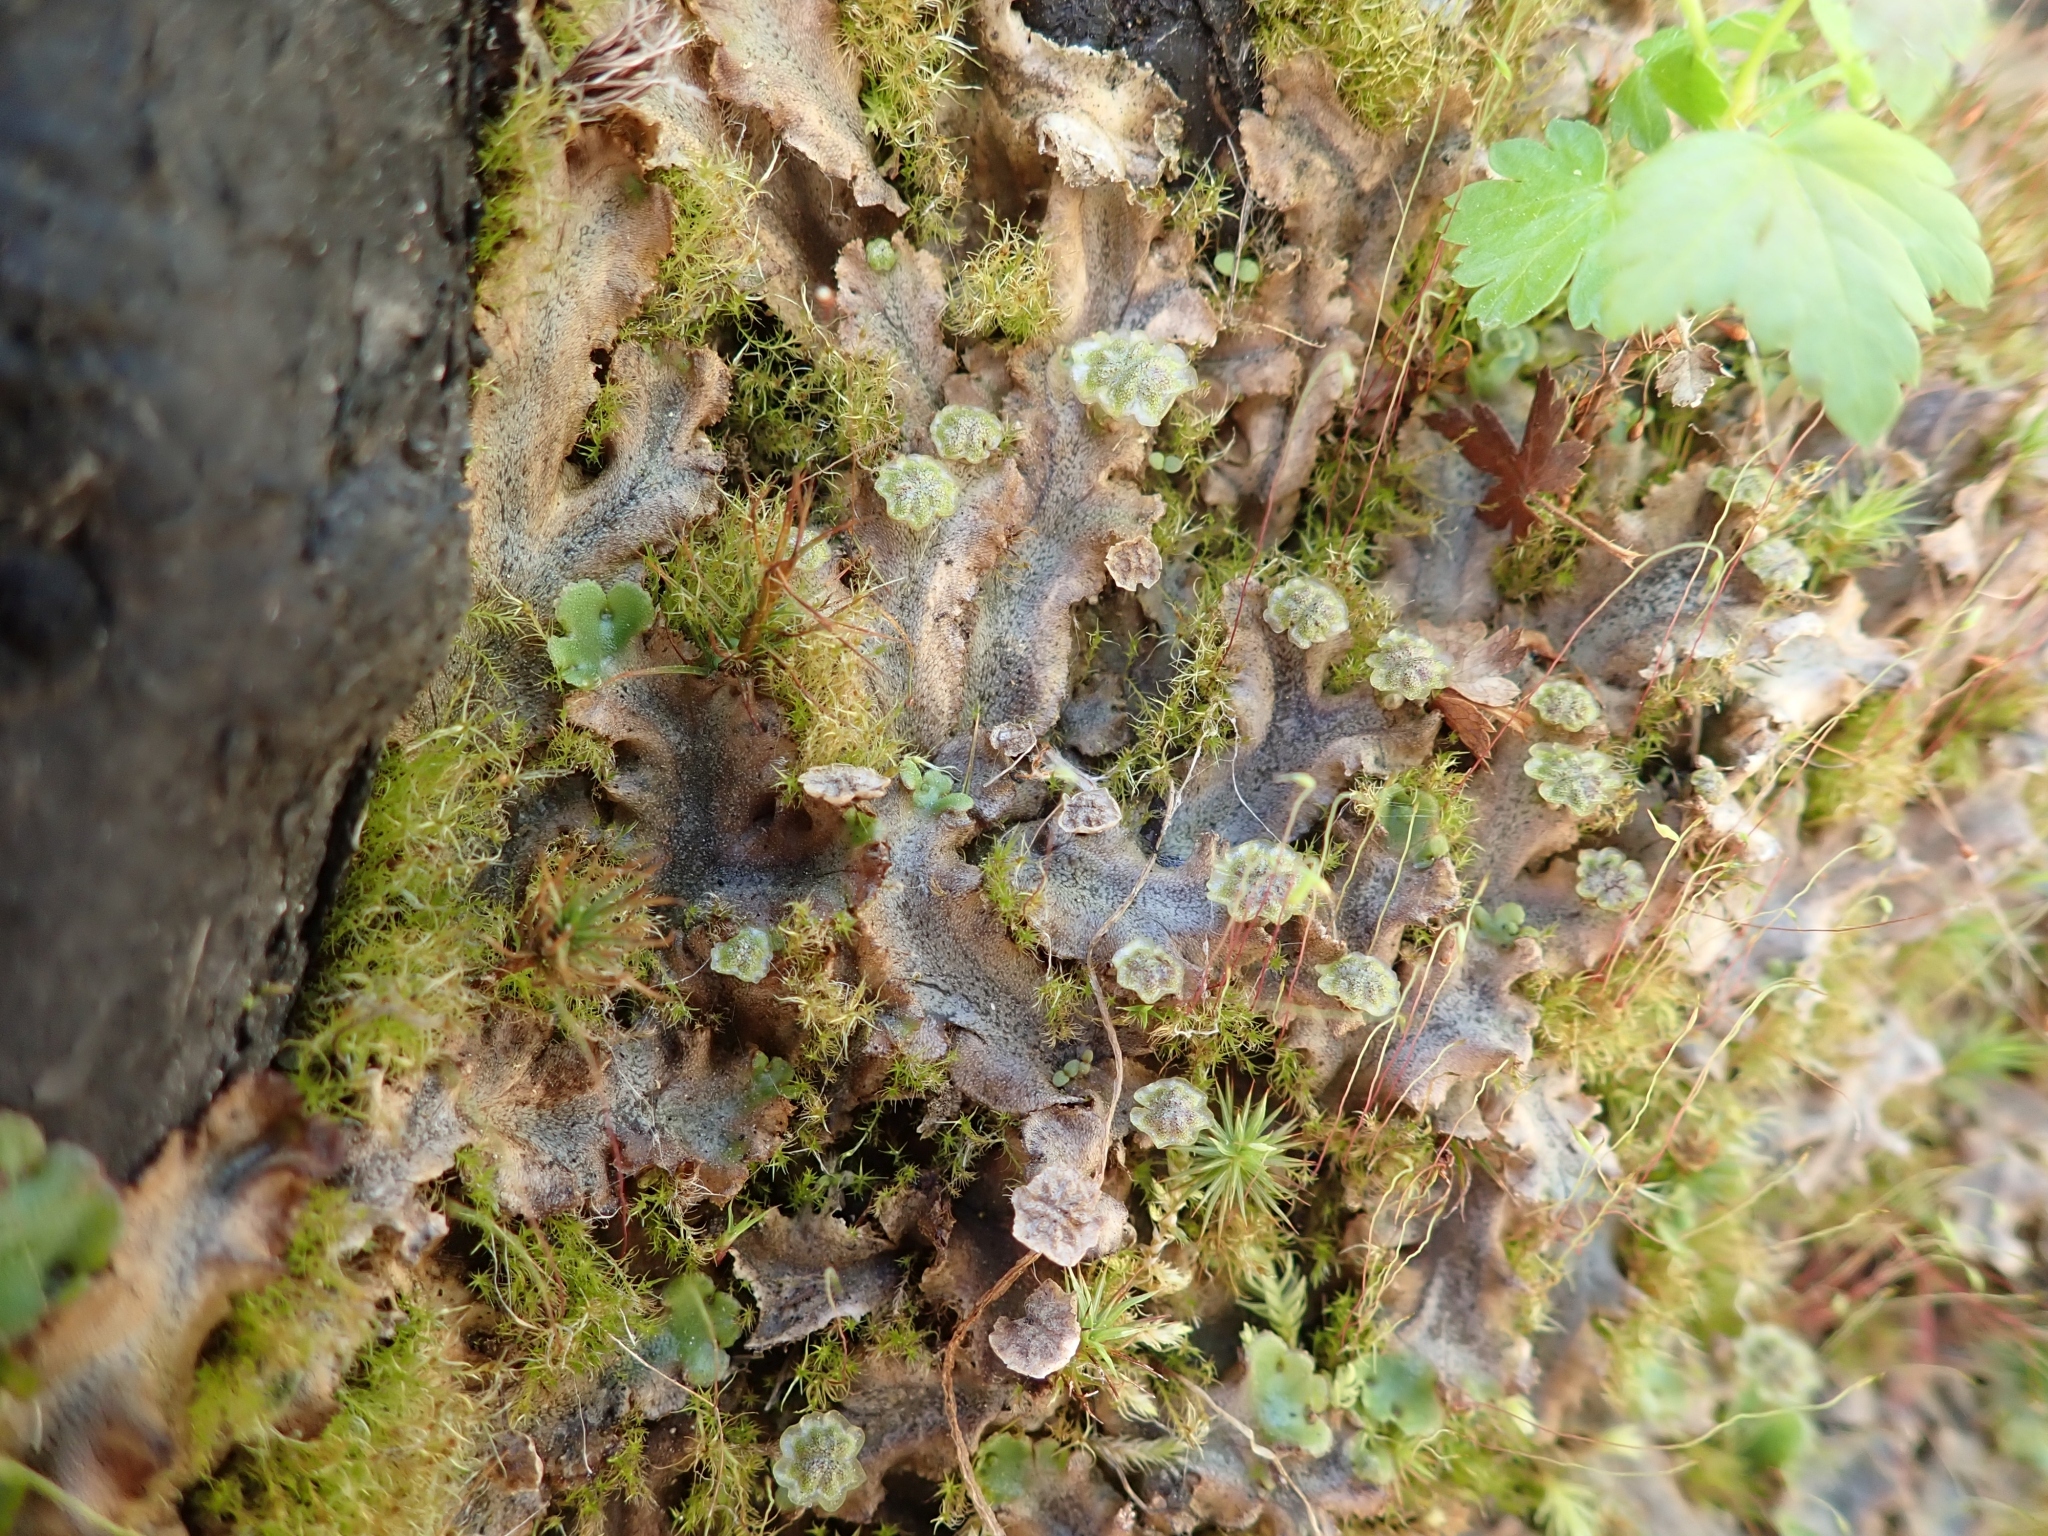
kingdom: Plantae
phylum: Marchantiophyta
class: Marchantiopsida
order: Marchantiales
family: Marchantiaceae
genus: Marchantia
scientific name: Marchantia polymorpha
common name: Common liverwort
